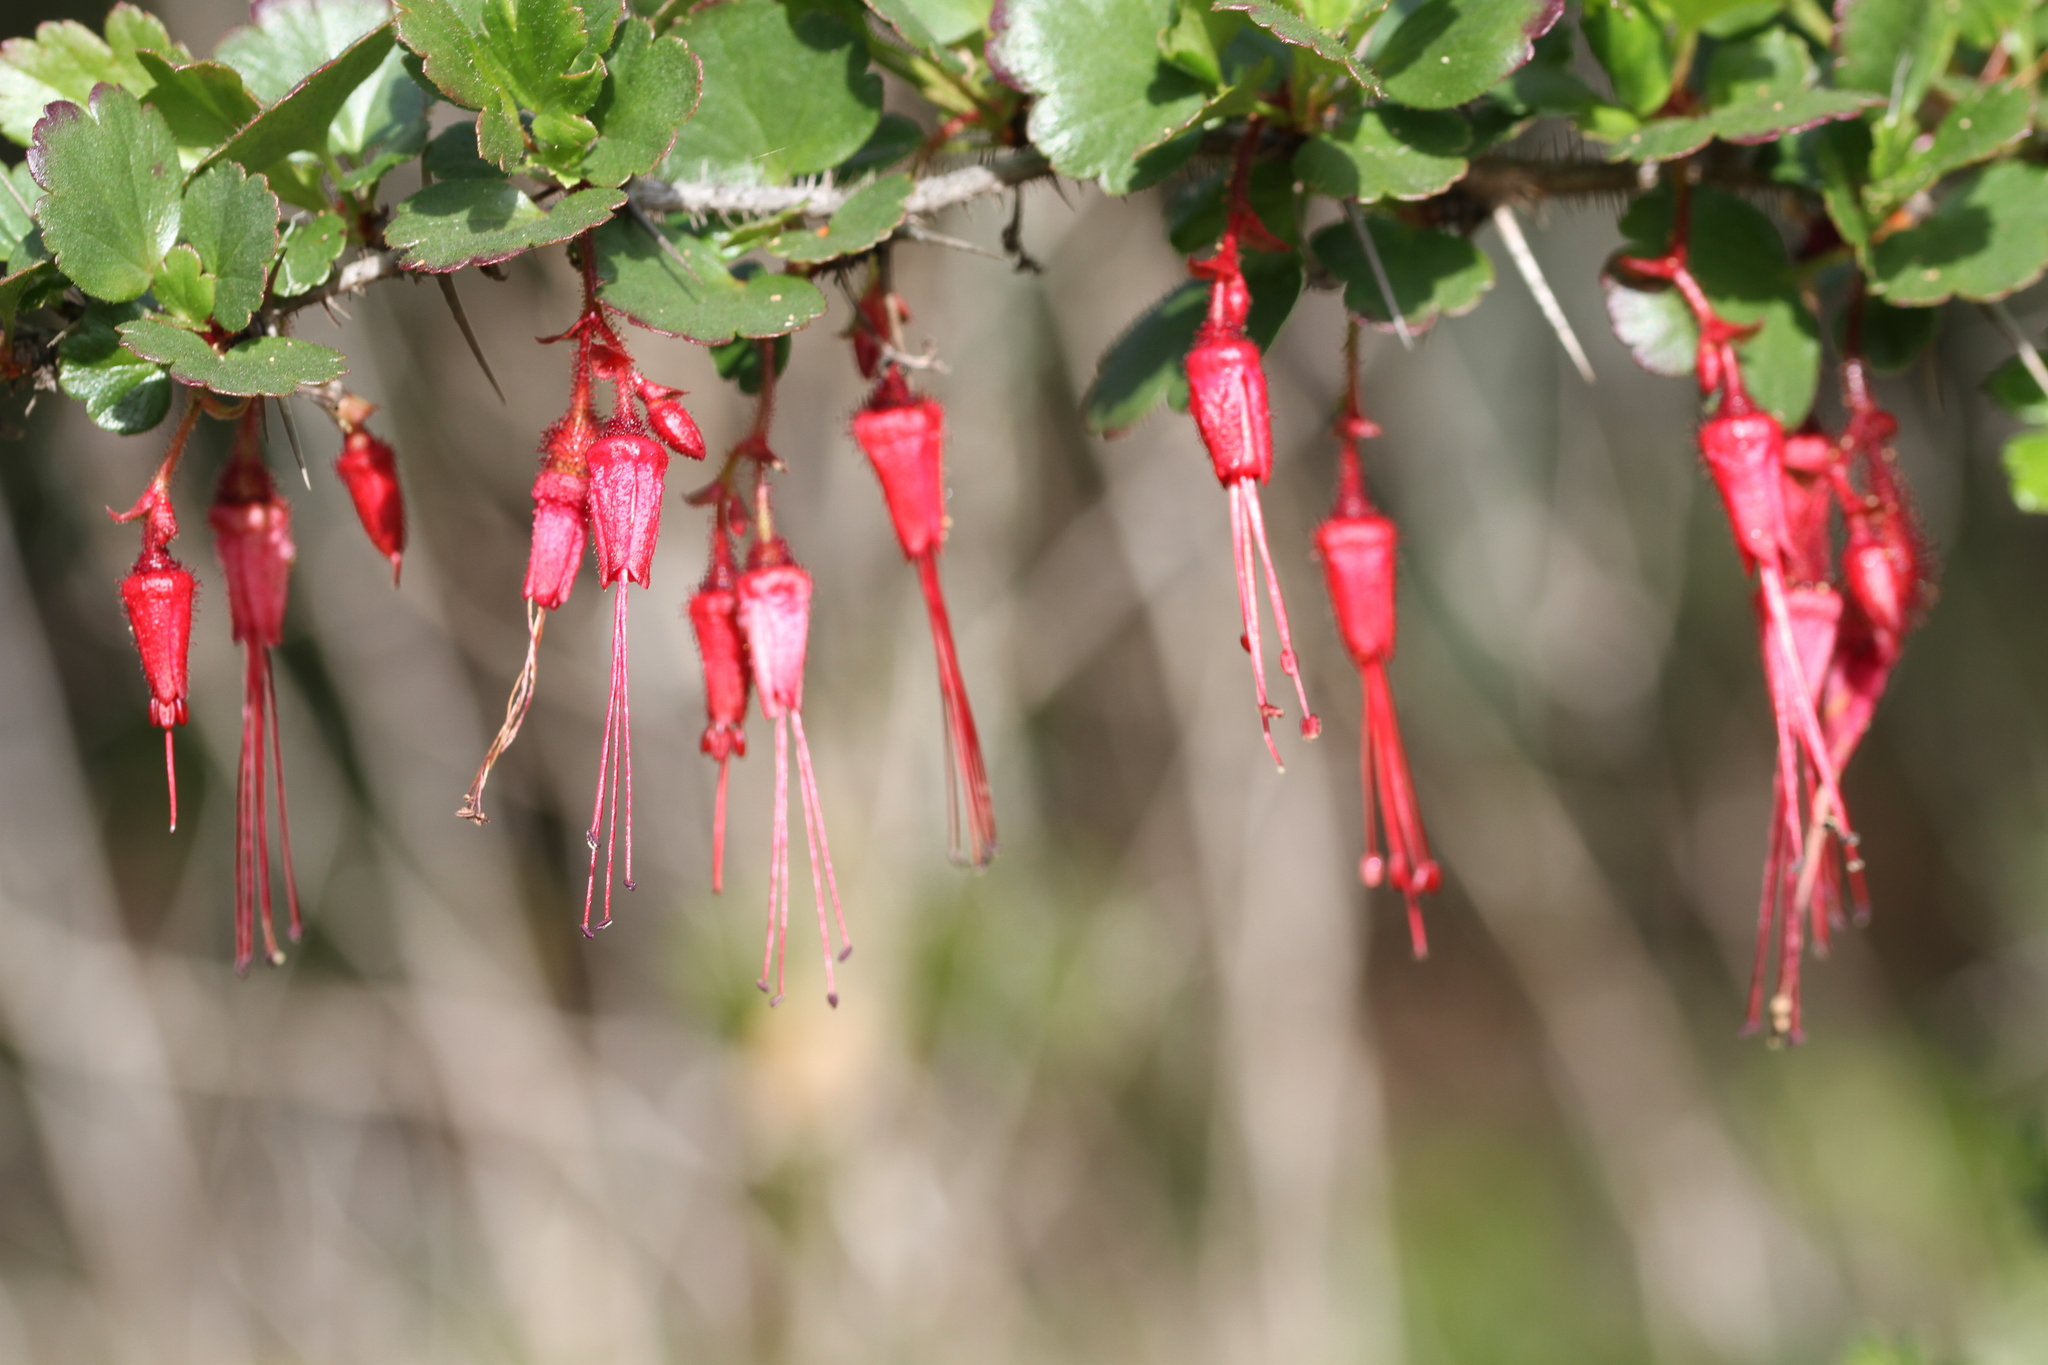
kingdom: Plantae
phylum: Tracheophyta
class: Magnoliopsida
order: Saxifragales
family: Grossulariaceae
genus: Ribes
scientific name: Ribes speciosum
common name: Fuchsia-flower gooseberry
